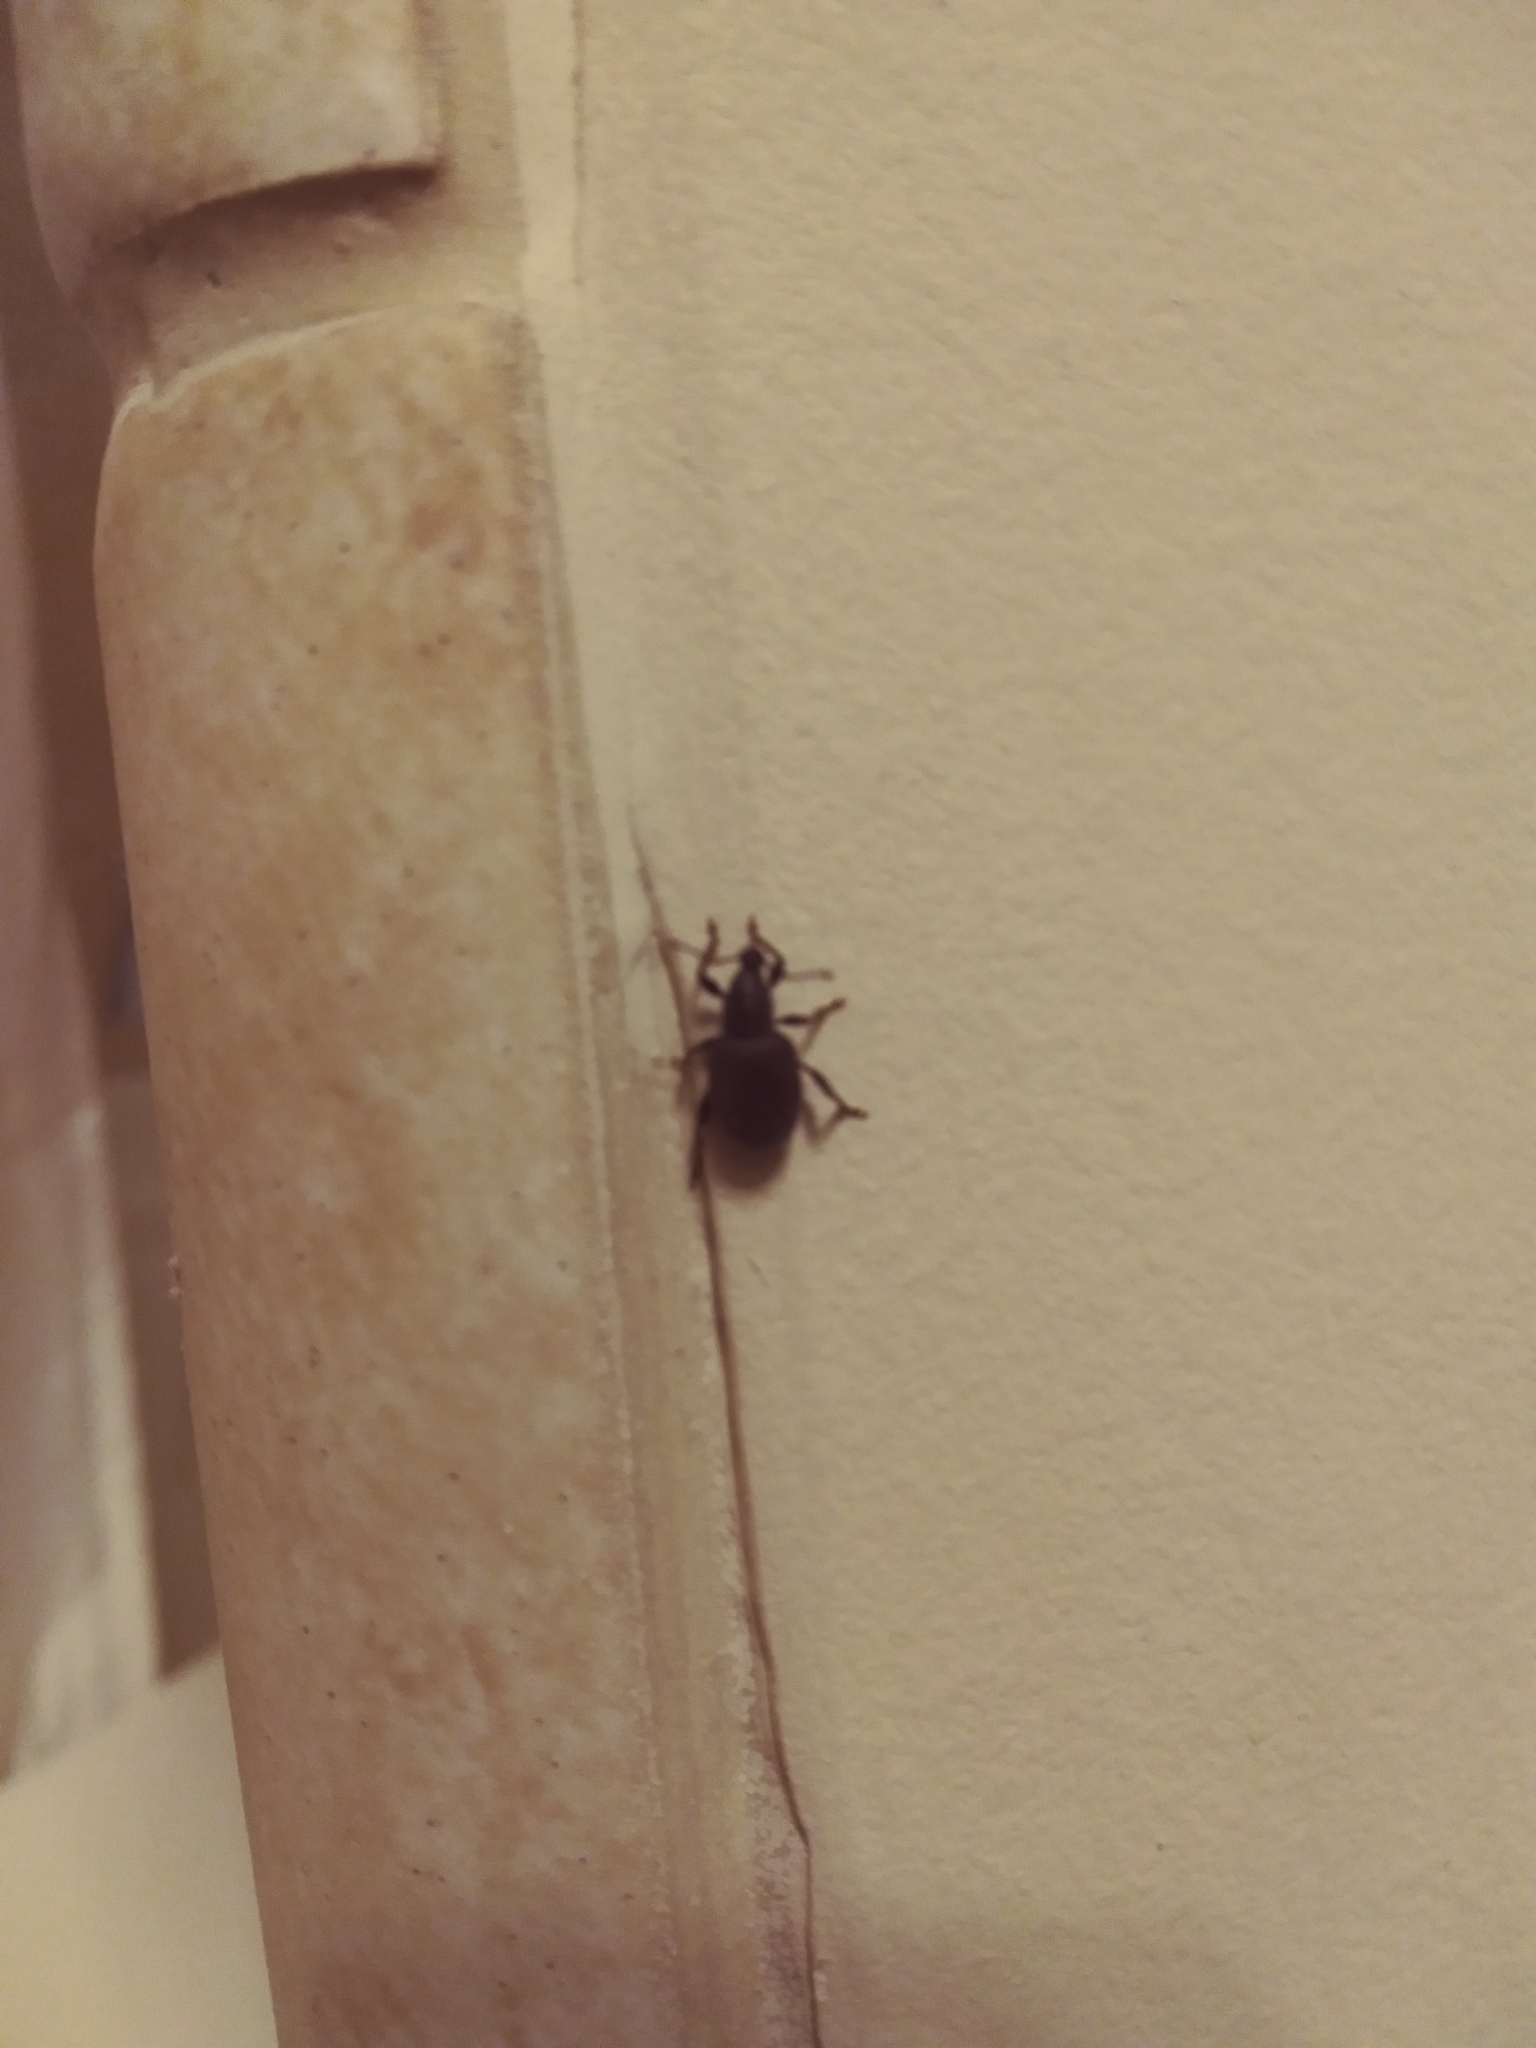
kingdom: Animalia
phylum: Arthropoda
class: Insecta
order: Coleoptera
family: Curculionidae
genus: Otiorhynchus
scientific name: Otiorhynchus rugosostriatus
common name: Weevil
